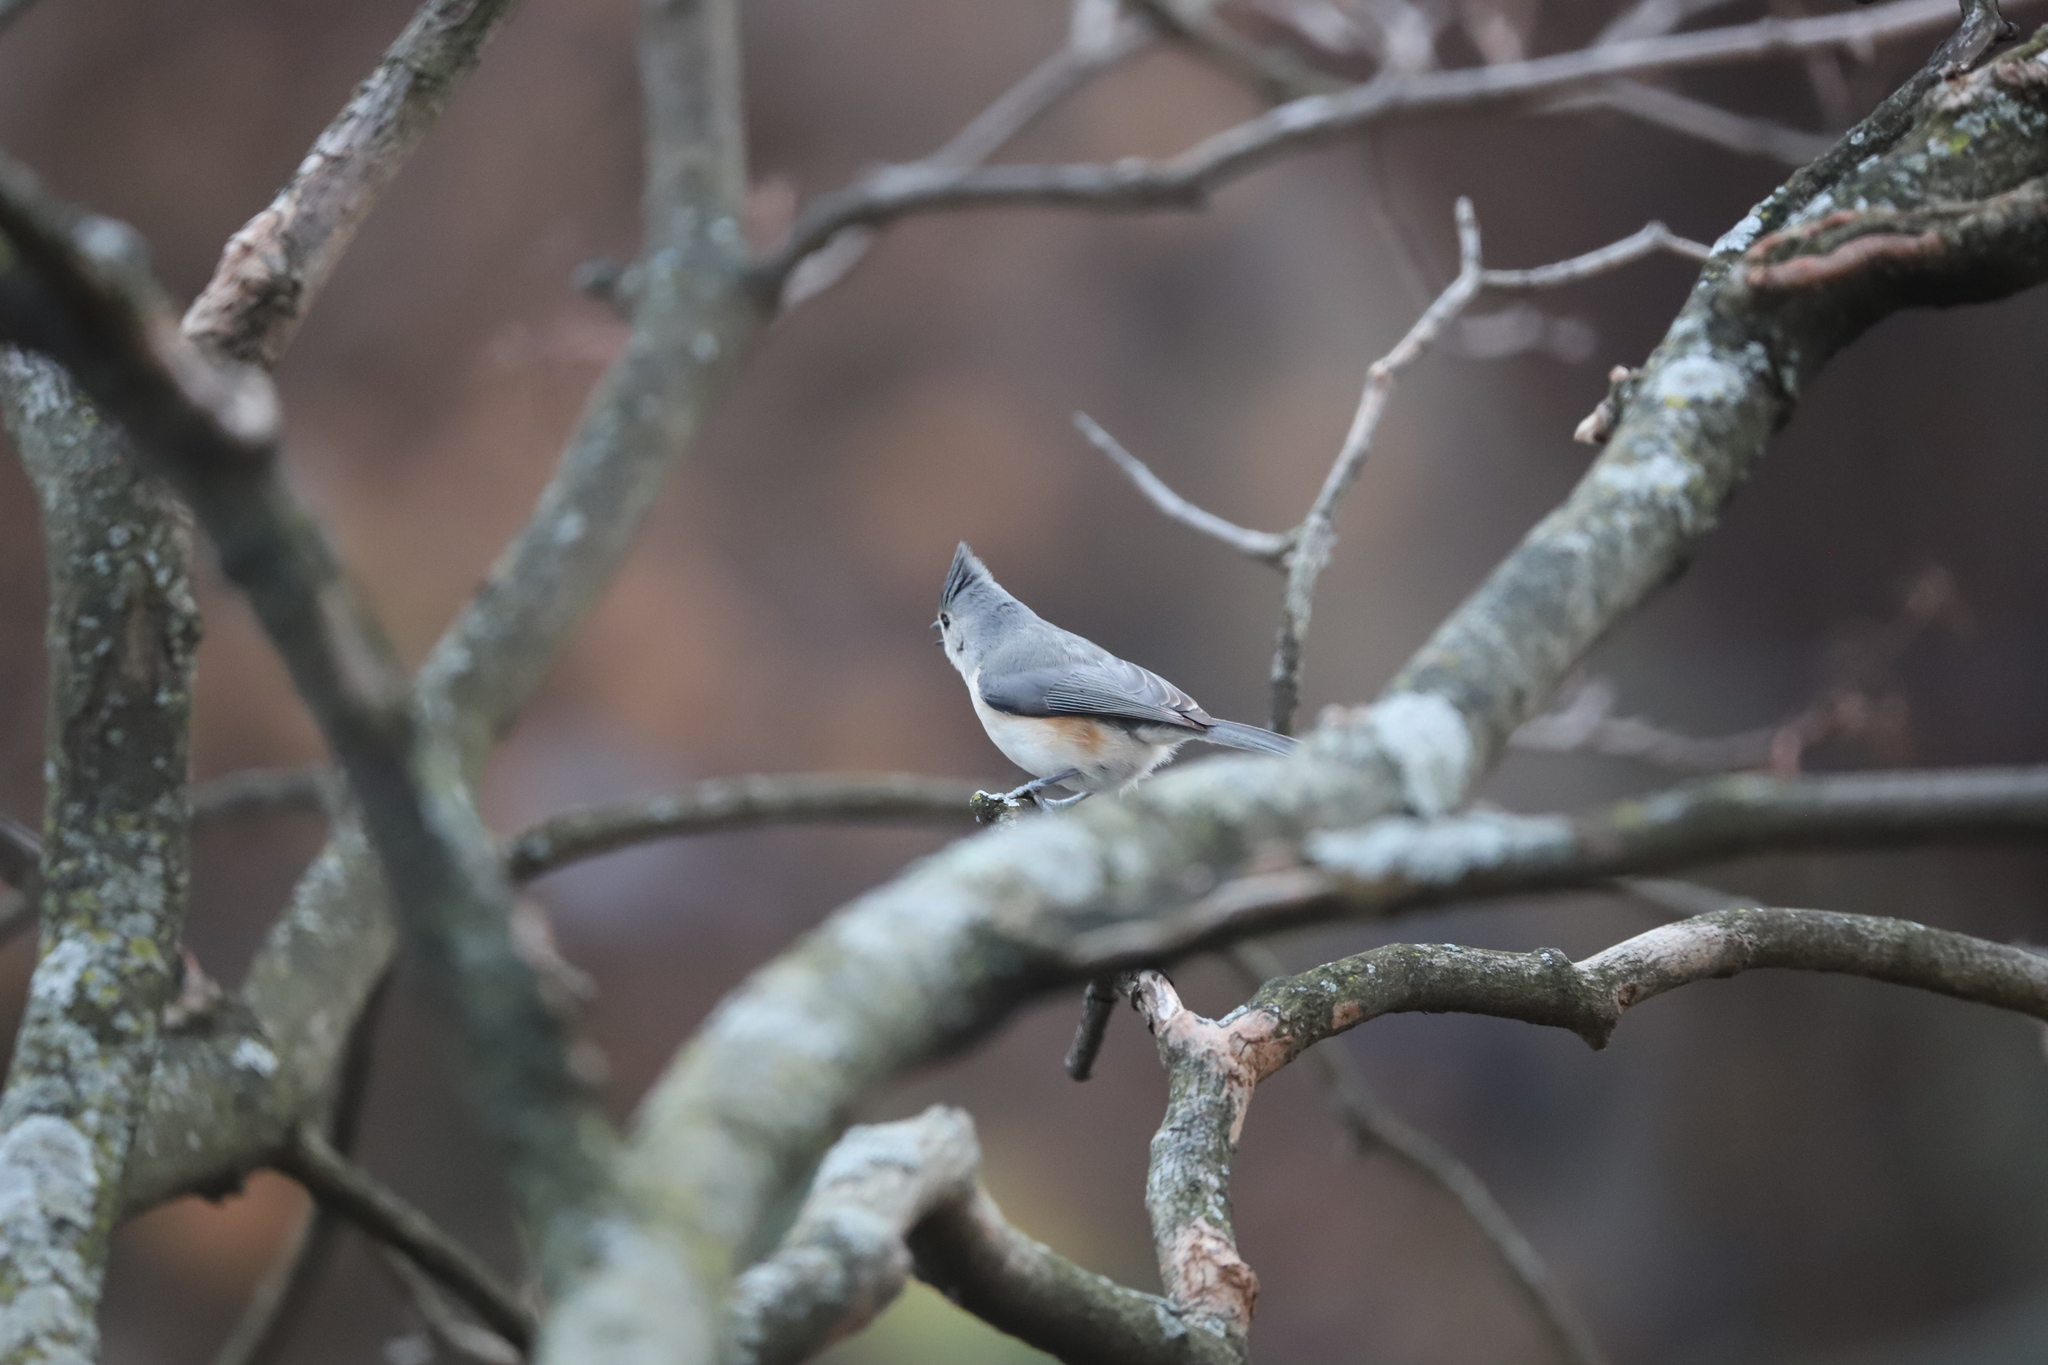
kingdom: Animalia
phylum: Chordata
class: Aves
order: Passeriformes
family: Paridae
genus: Baeolophus
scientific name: Baeolophus bicolor
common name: Tufted titmouse
